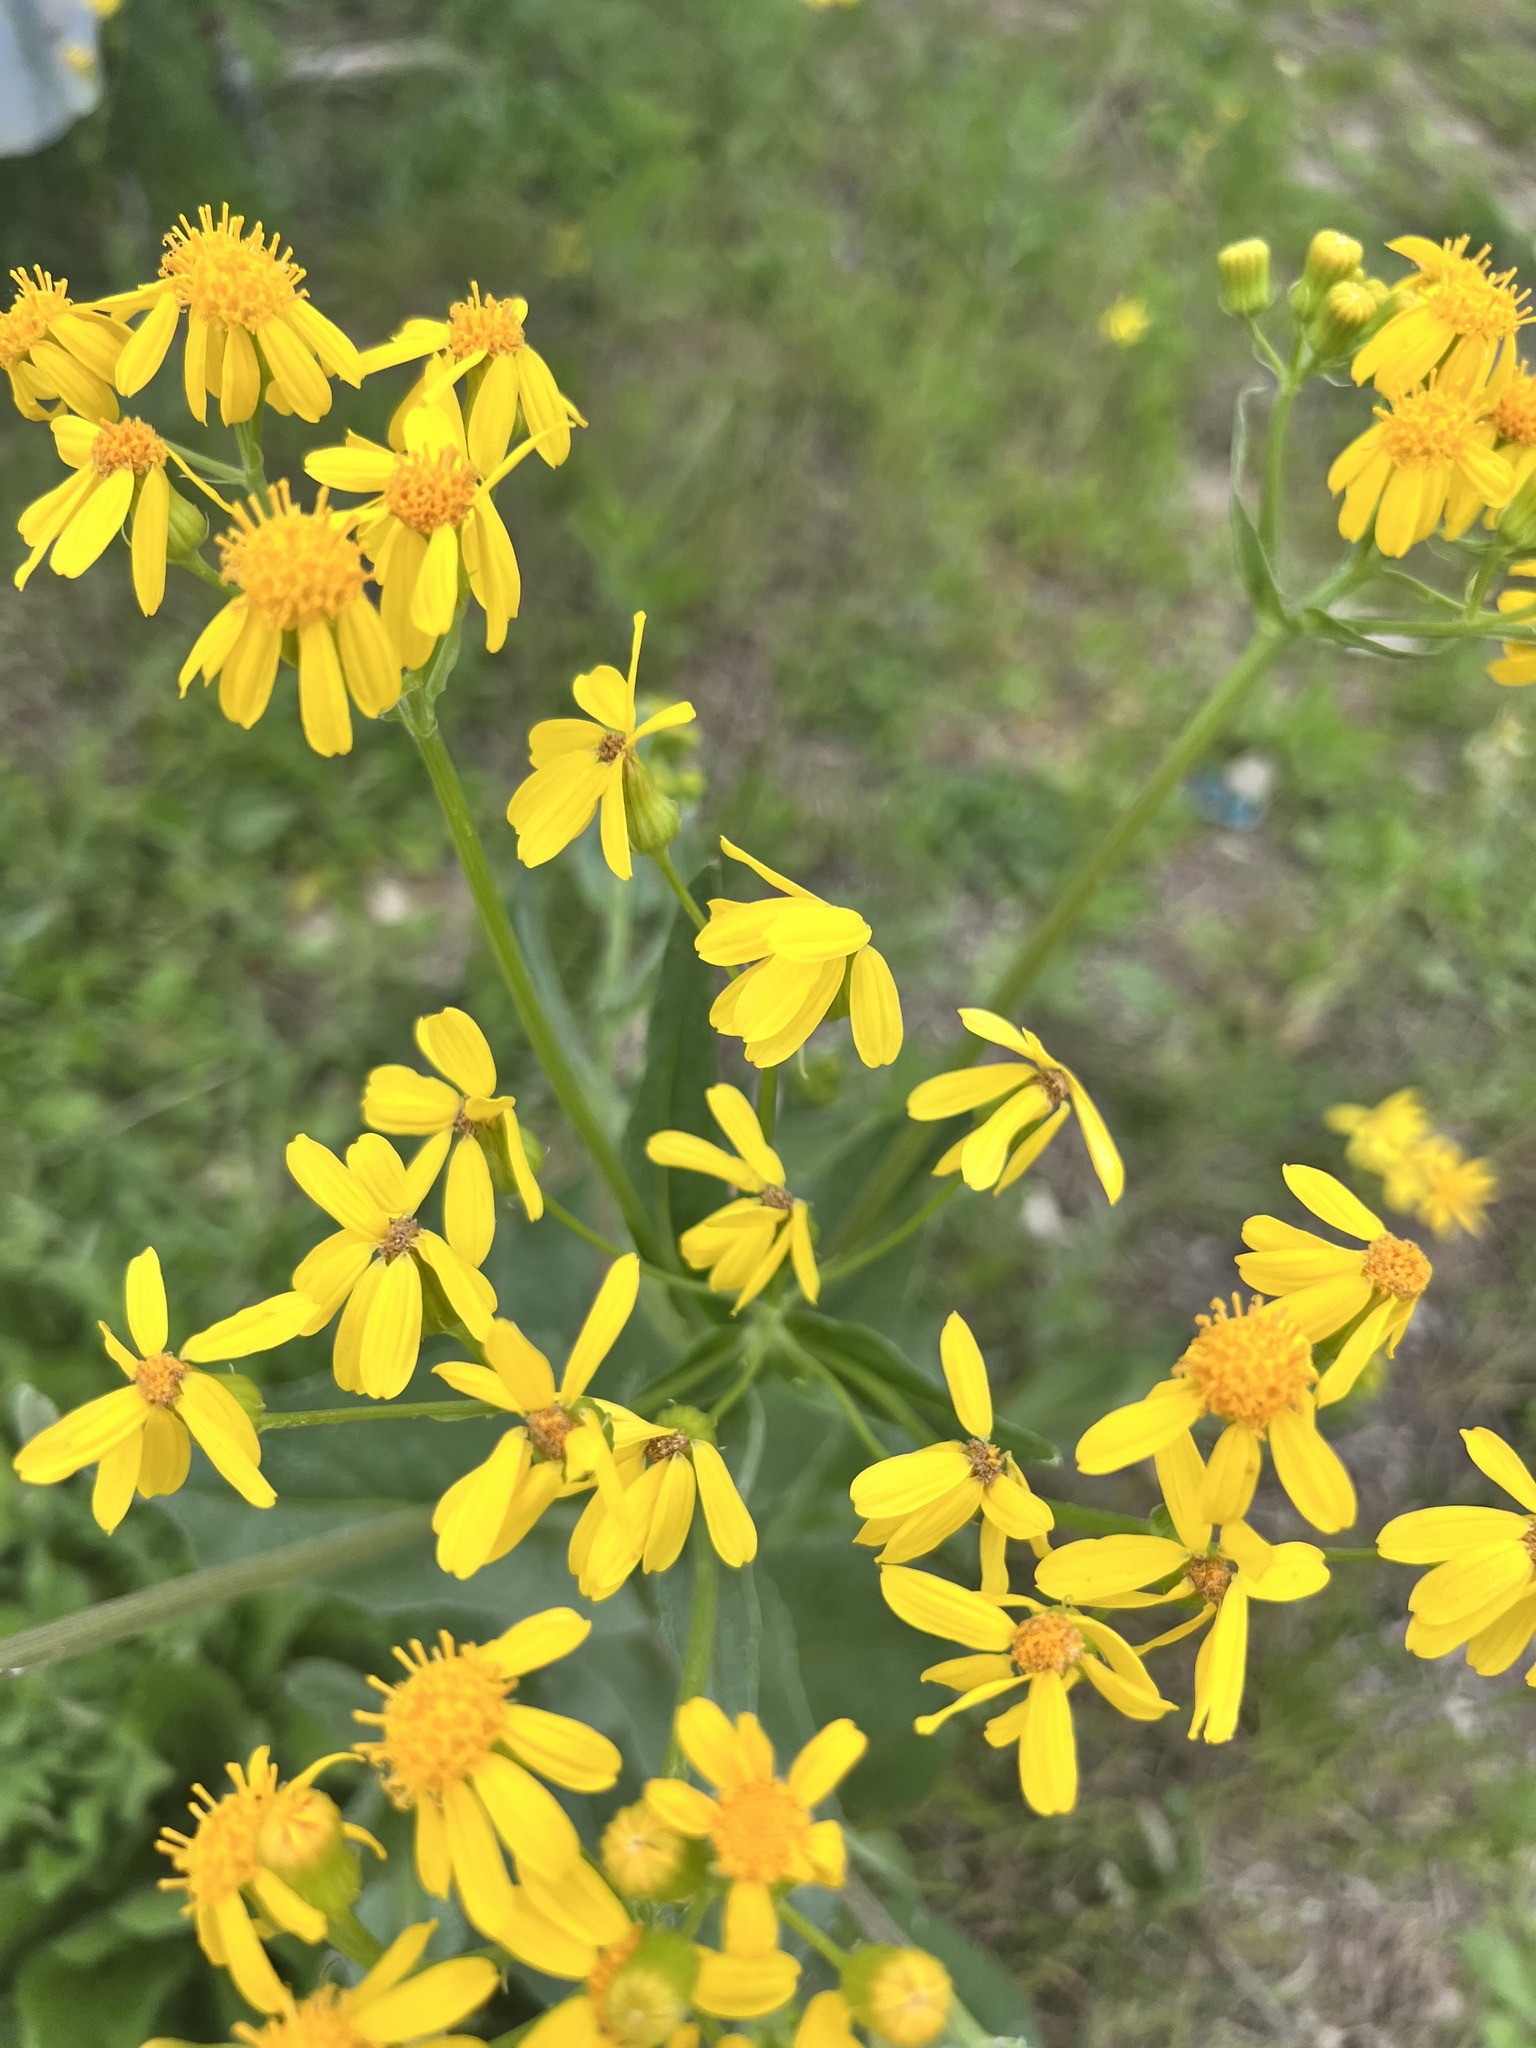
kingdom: Plantae
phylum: Tracheophyta
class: Magnoliopsida
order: Asterales
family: Asteraceae
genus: Senecio
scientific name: Senecio ampullaceus
